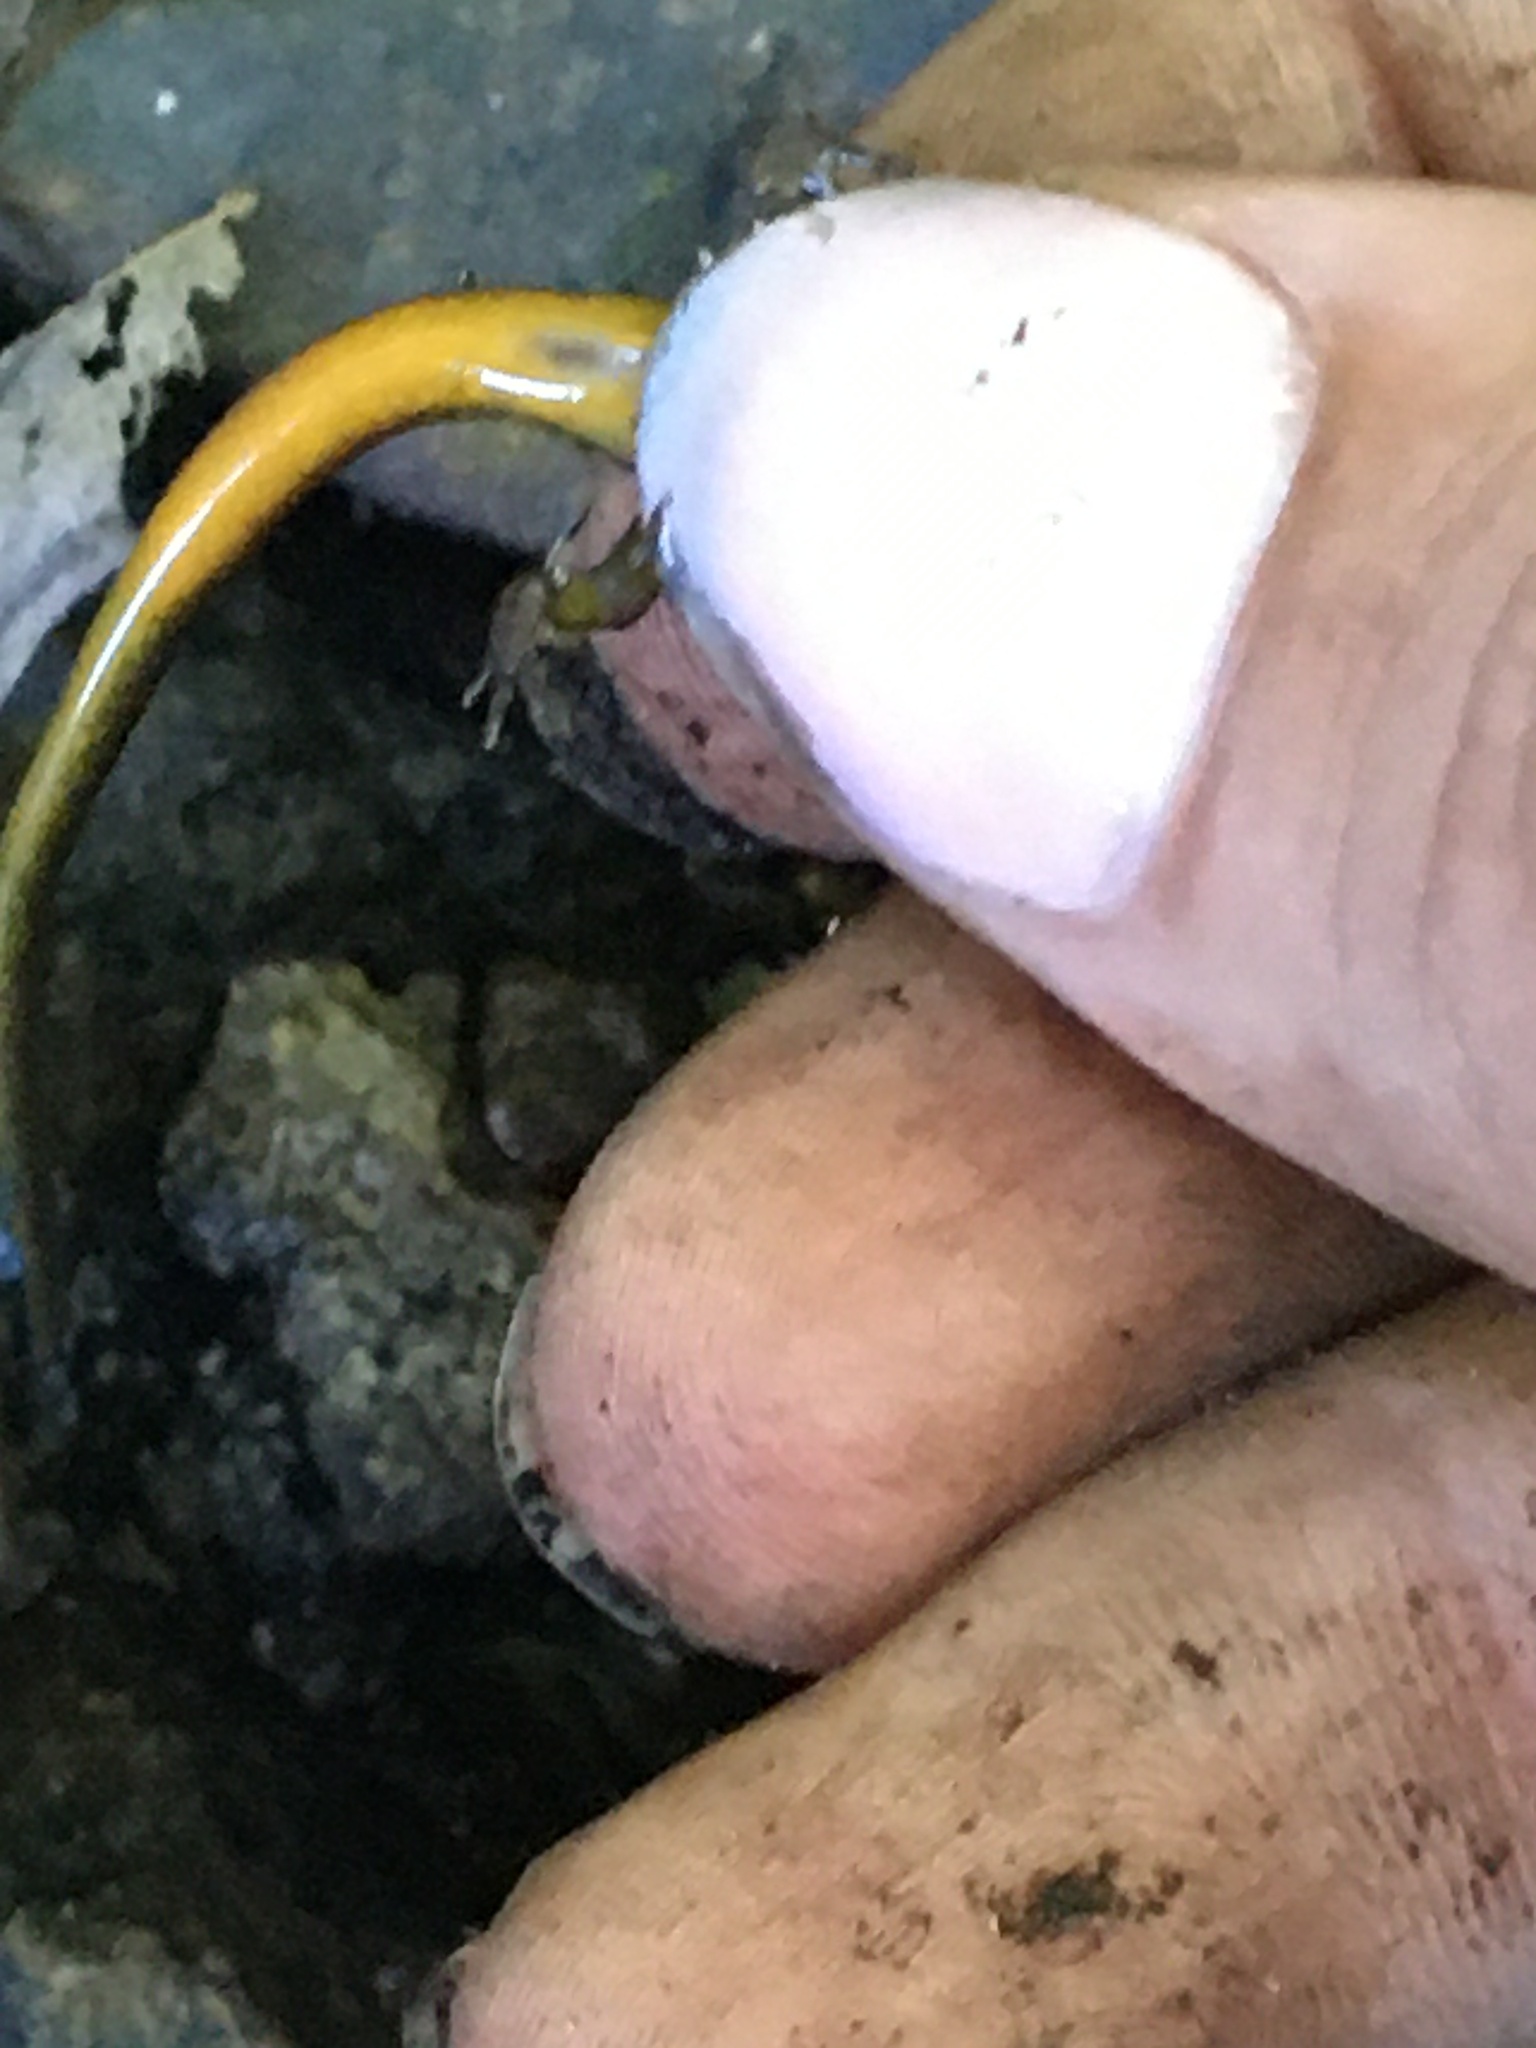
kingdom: Animalia
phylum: Chordata
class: Amphibia
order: Caudata
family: Plethodontidae
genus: Eurycea
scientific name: Eurycea bislineata
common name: Northern two-lined salamander
